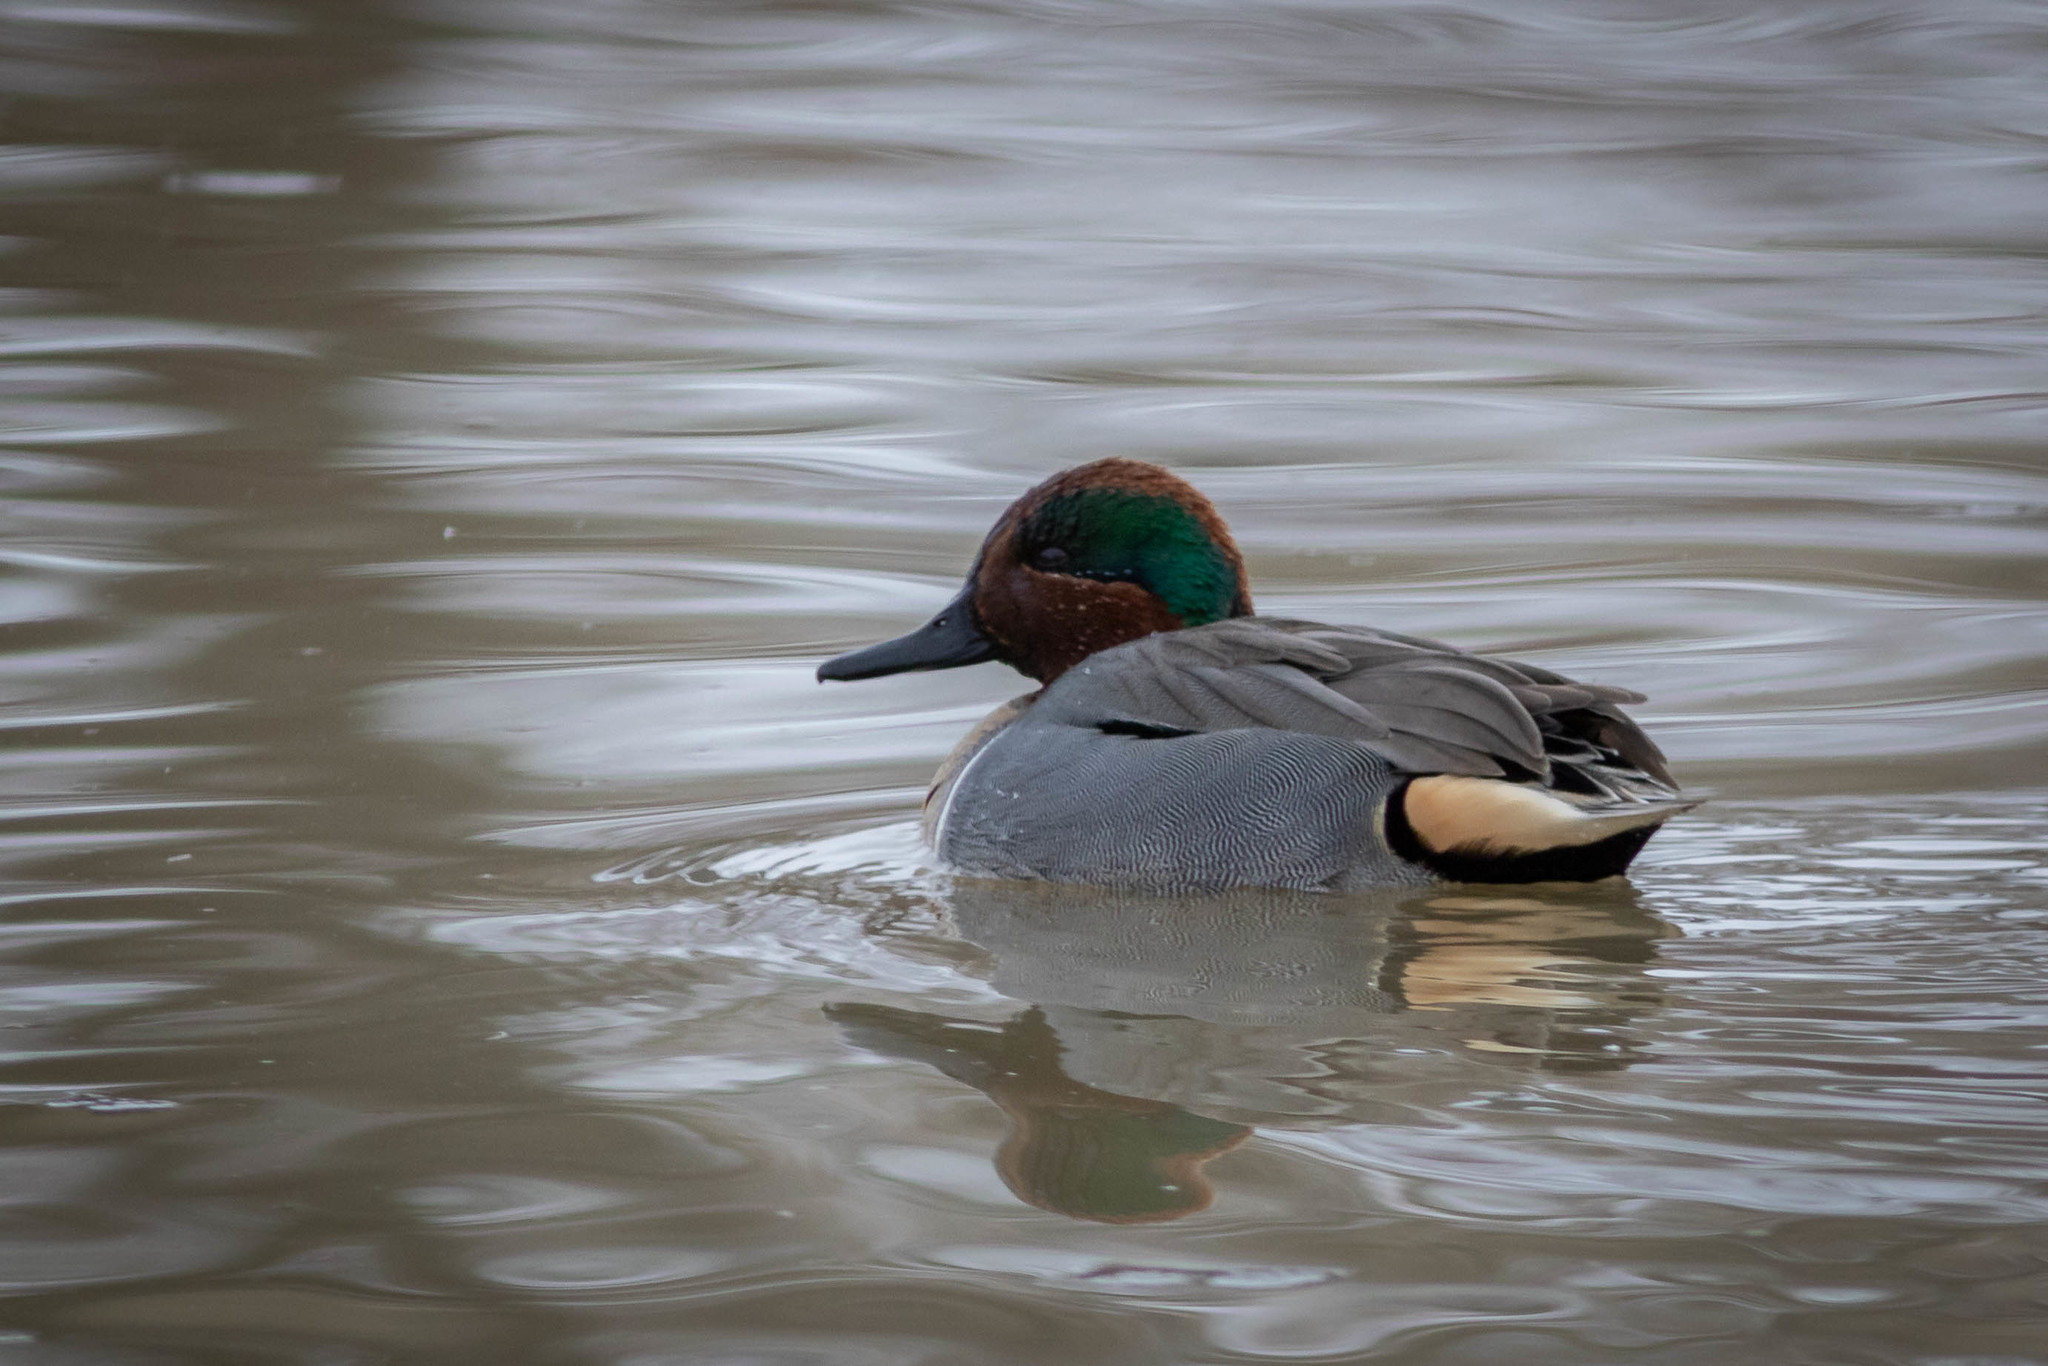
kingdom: Animalia
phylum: Chordata
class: Aves
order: Anseriformes
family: Anatidae
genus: Anas
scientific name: Anas crecca
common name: Eurasian teal
